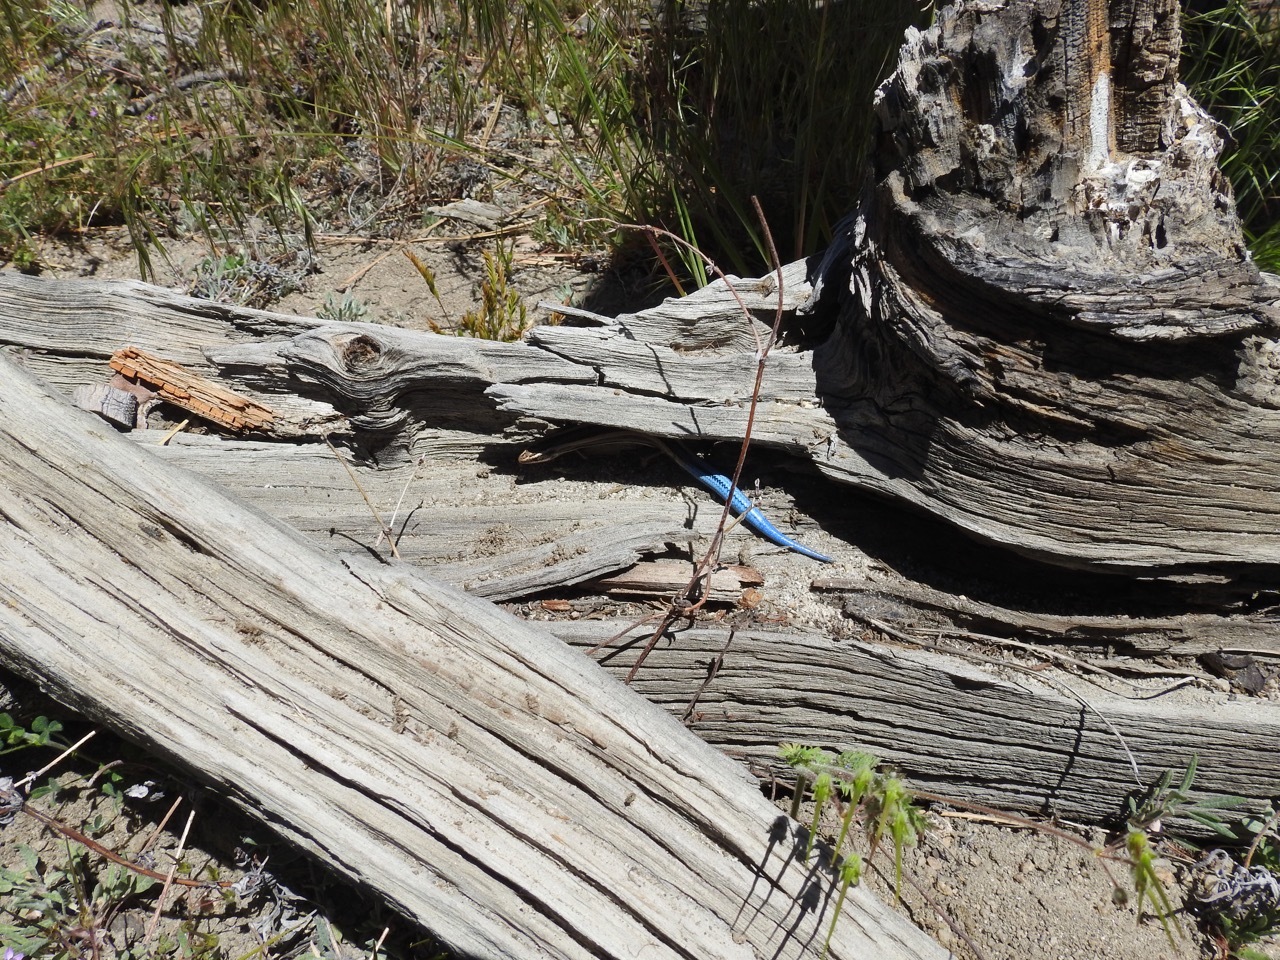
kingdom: Animalia
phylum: Chordata
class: Squamata
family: Scincidae
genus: Plestiodon
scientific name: Plestiodon skiltonianus
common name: Coronado island skink [interparietalis]
